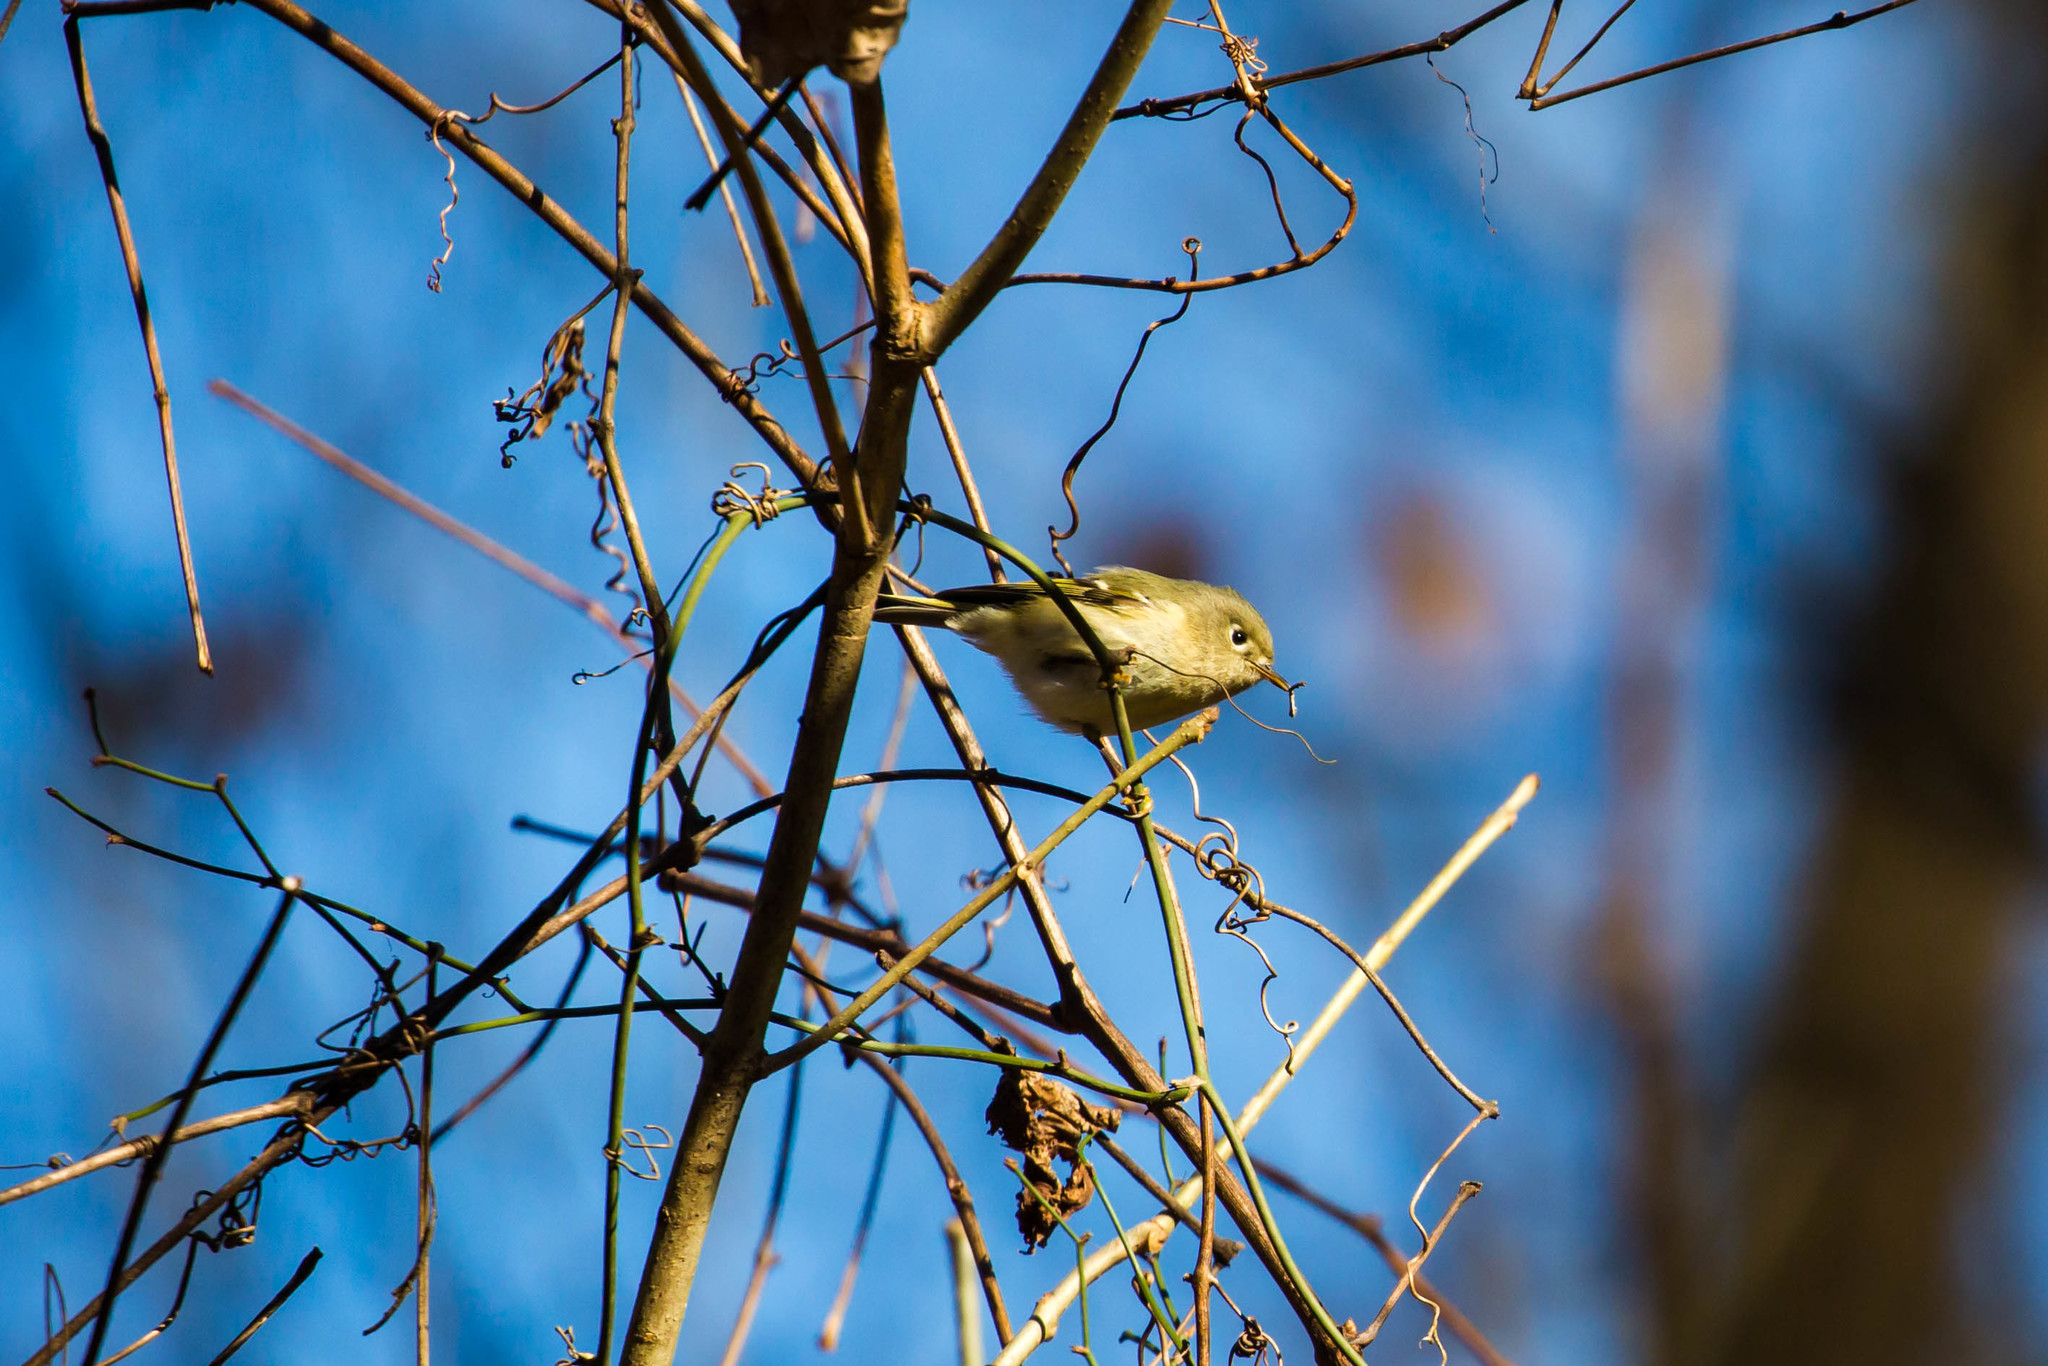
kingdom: Animalia
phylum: Chordata
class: Aves
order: Passeriformes
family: Regulidae
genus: Regulus
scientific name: Regulus calendula
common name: Ruby-crowned kinglet
